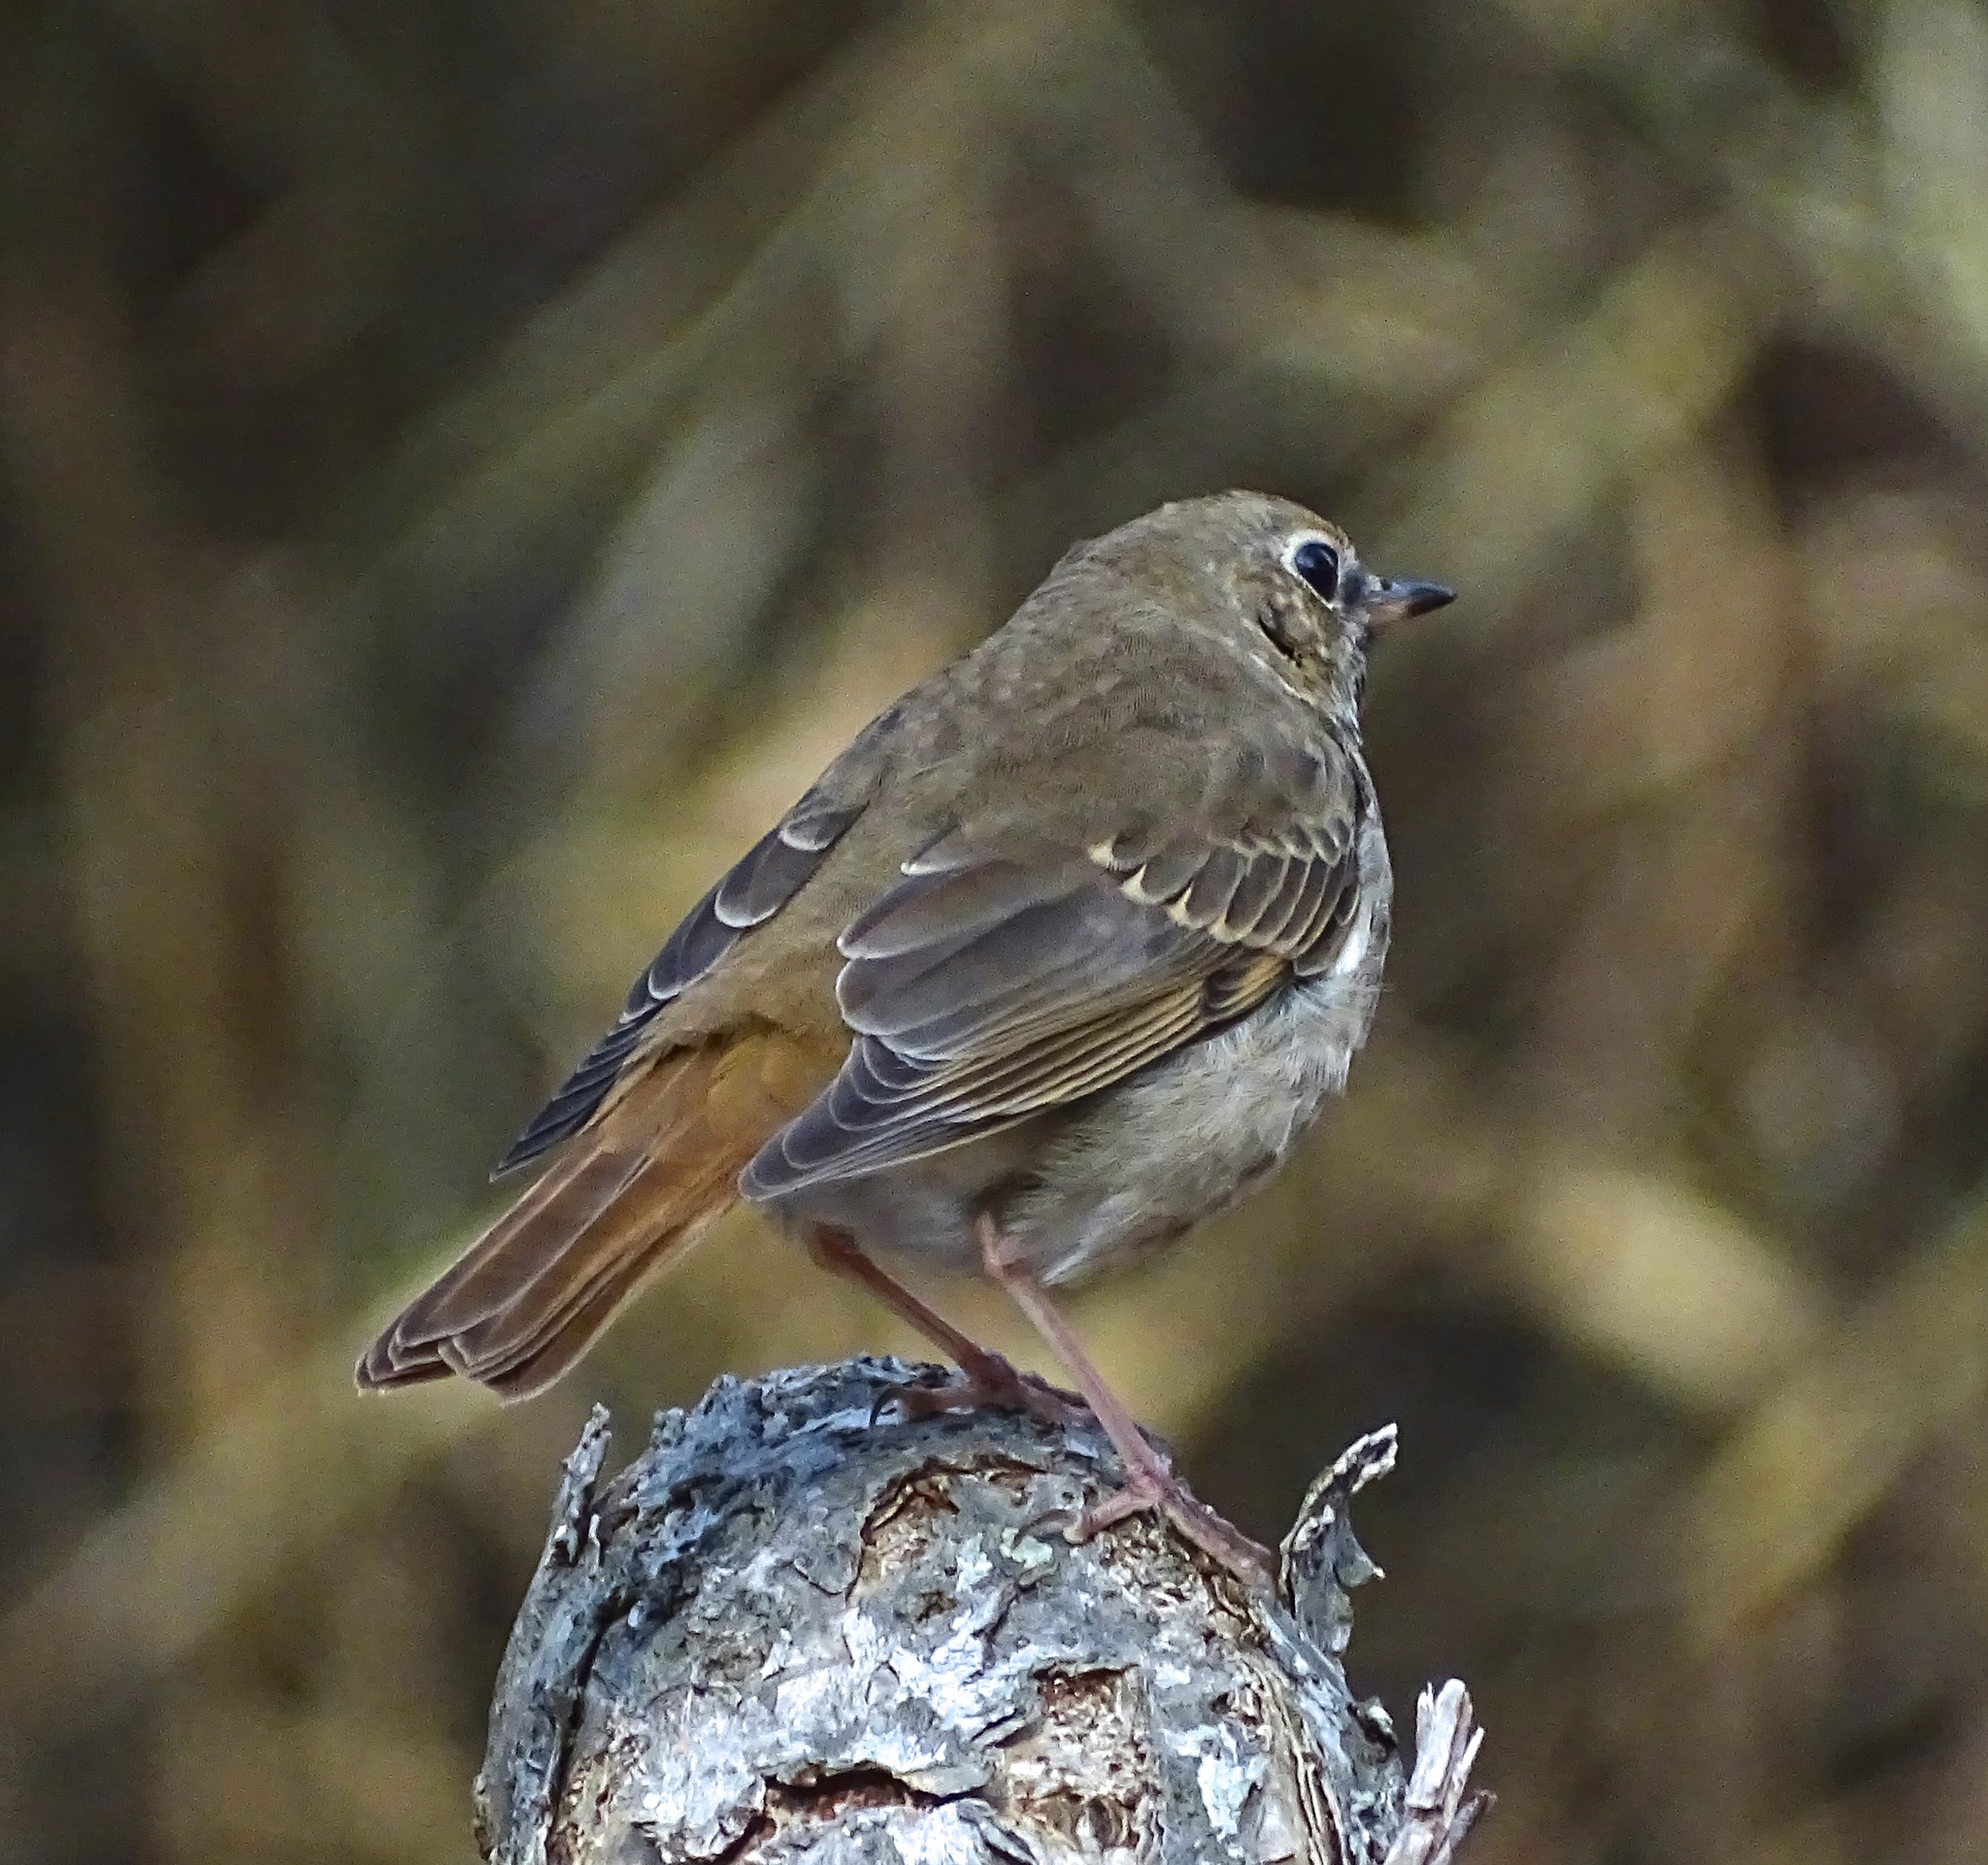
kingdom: Animalia
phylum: Chordata
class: Aves
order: Passeriformes
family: Turdidae
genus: Catharus
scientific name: Catharus guttatus
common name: Hermit thrush
